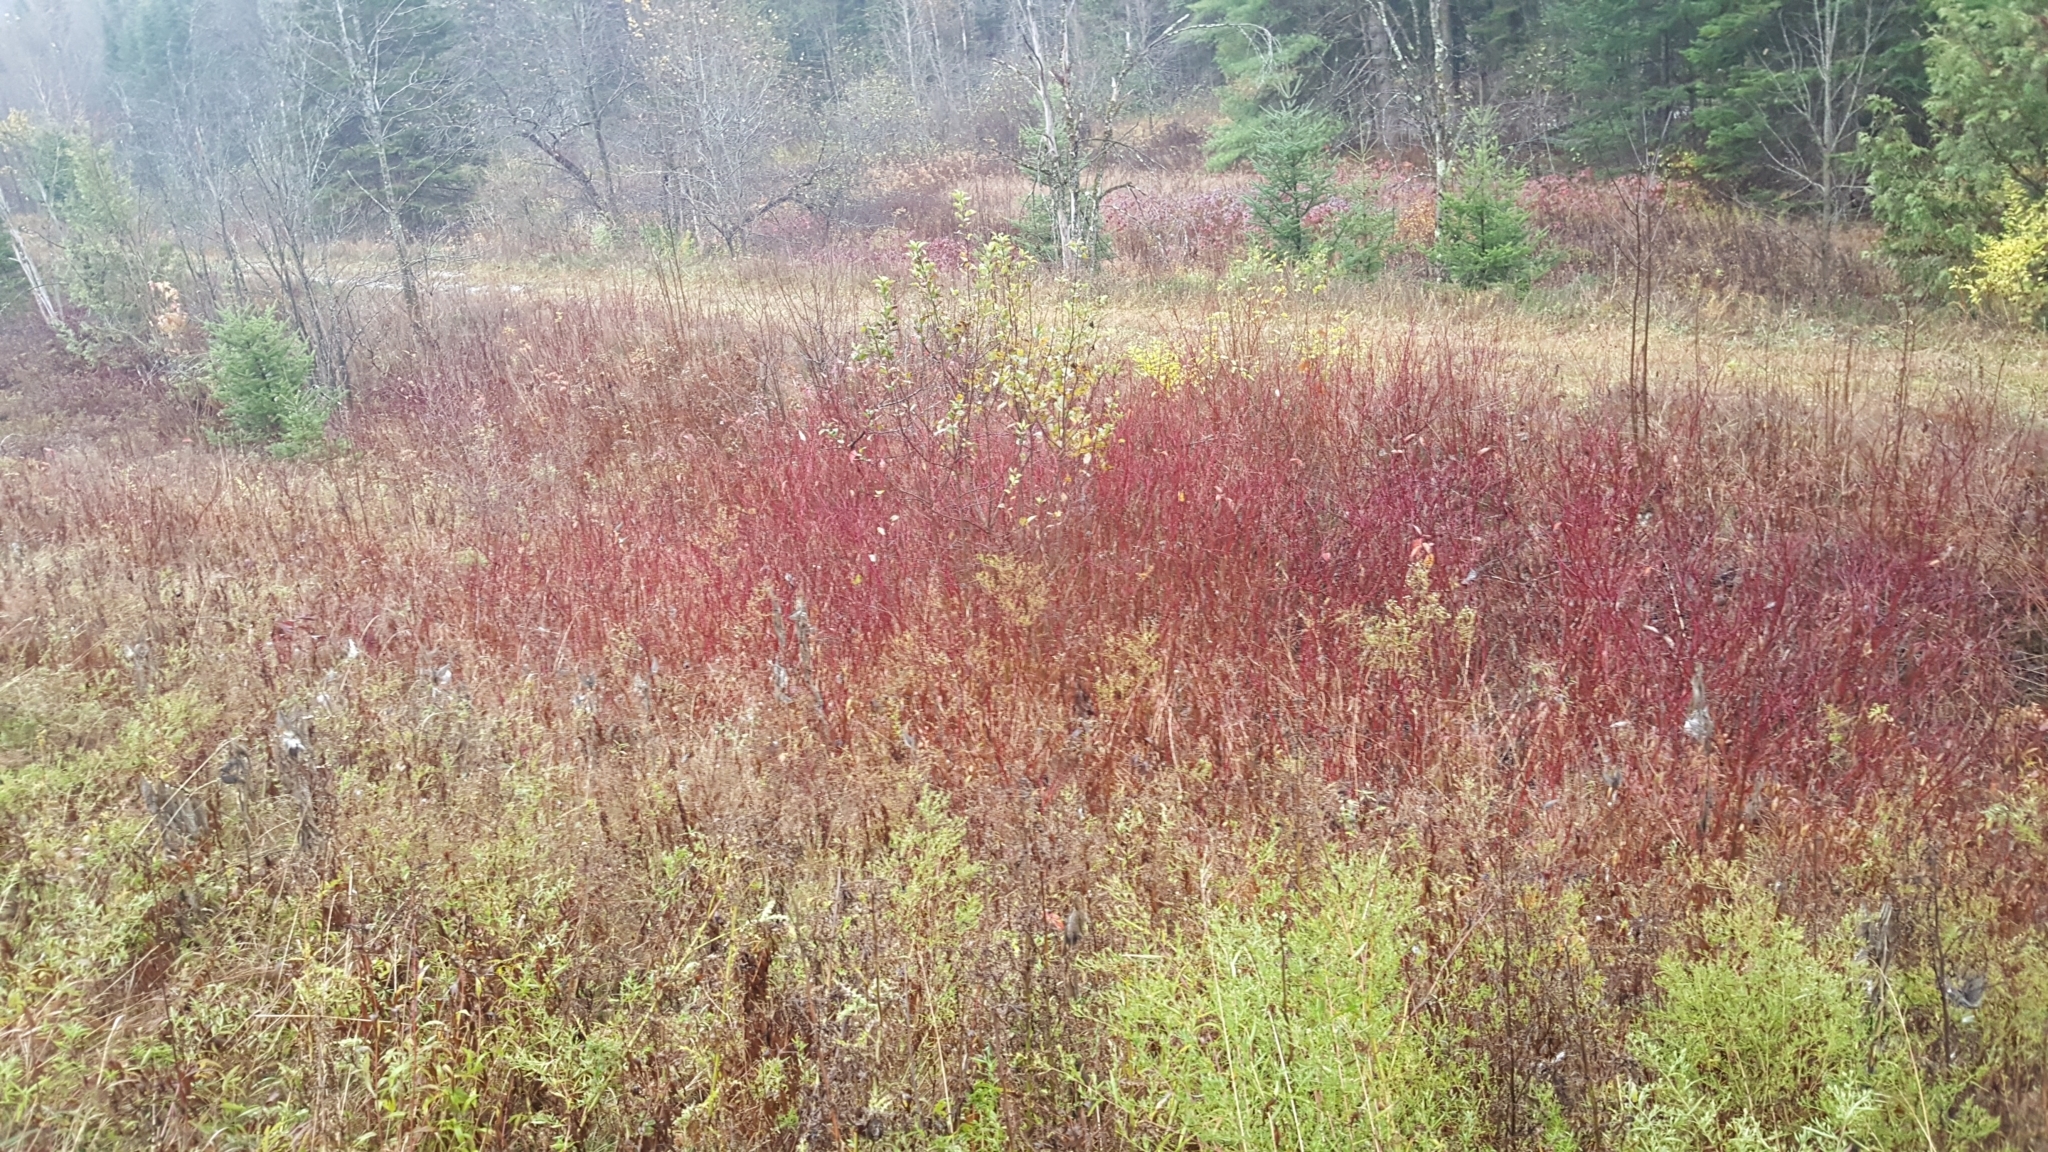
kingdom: Plantae
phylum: Tracheophyta
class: Magnoliopsida
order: Cornales
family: Cornaceae
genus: Cornus
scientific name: Cornus sericea
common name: Red-osier dogwood
